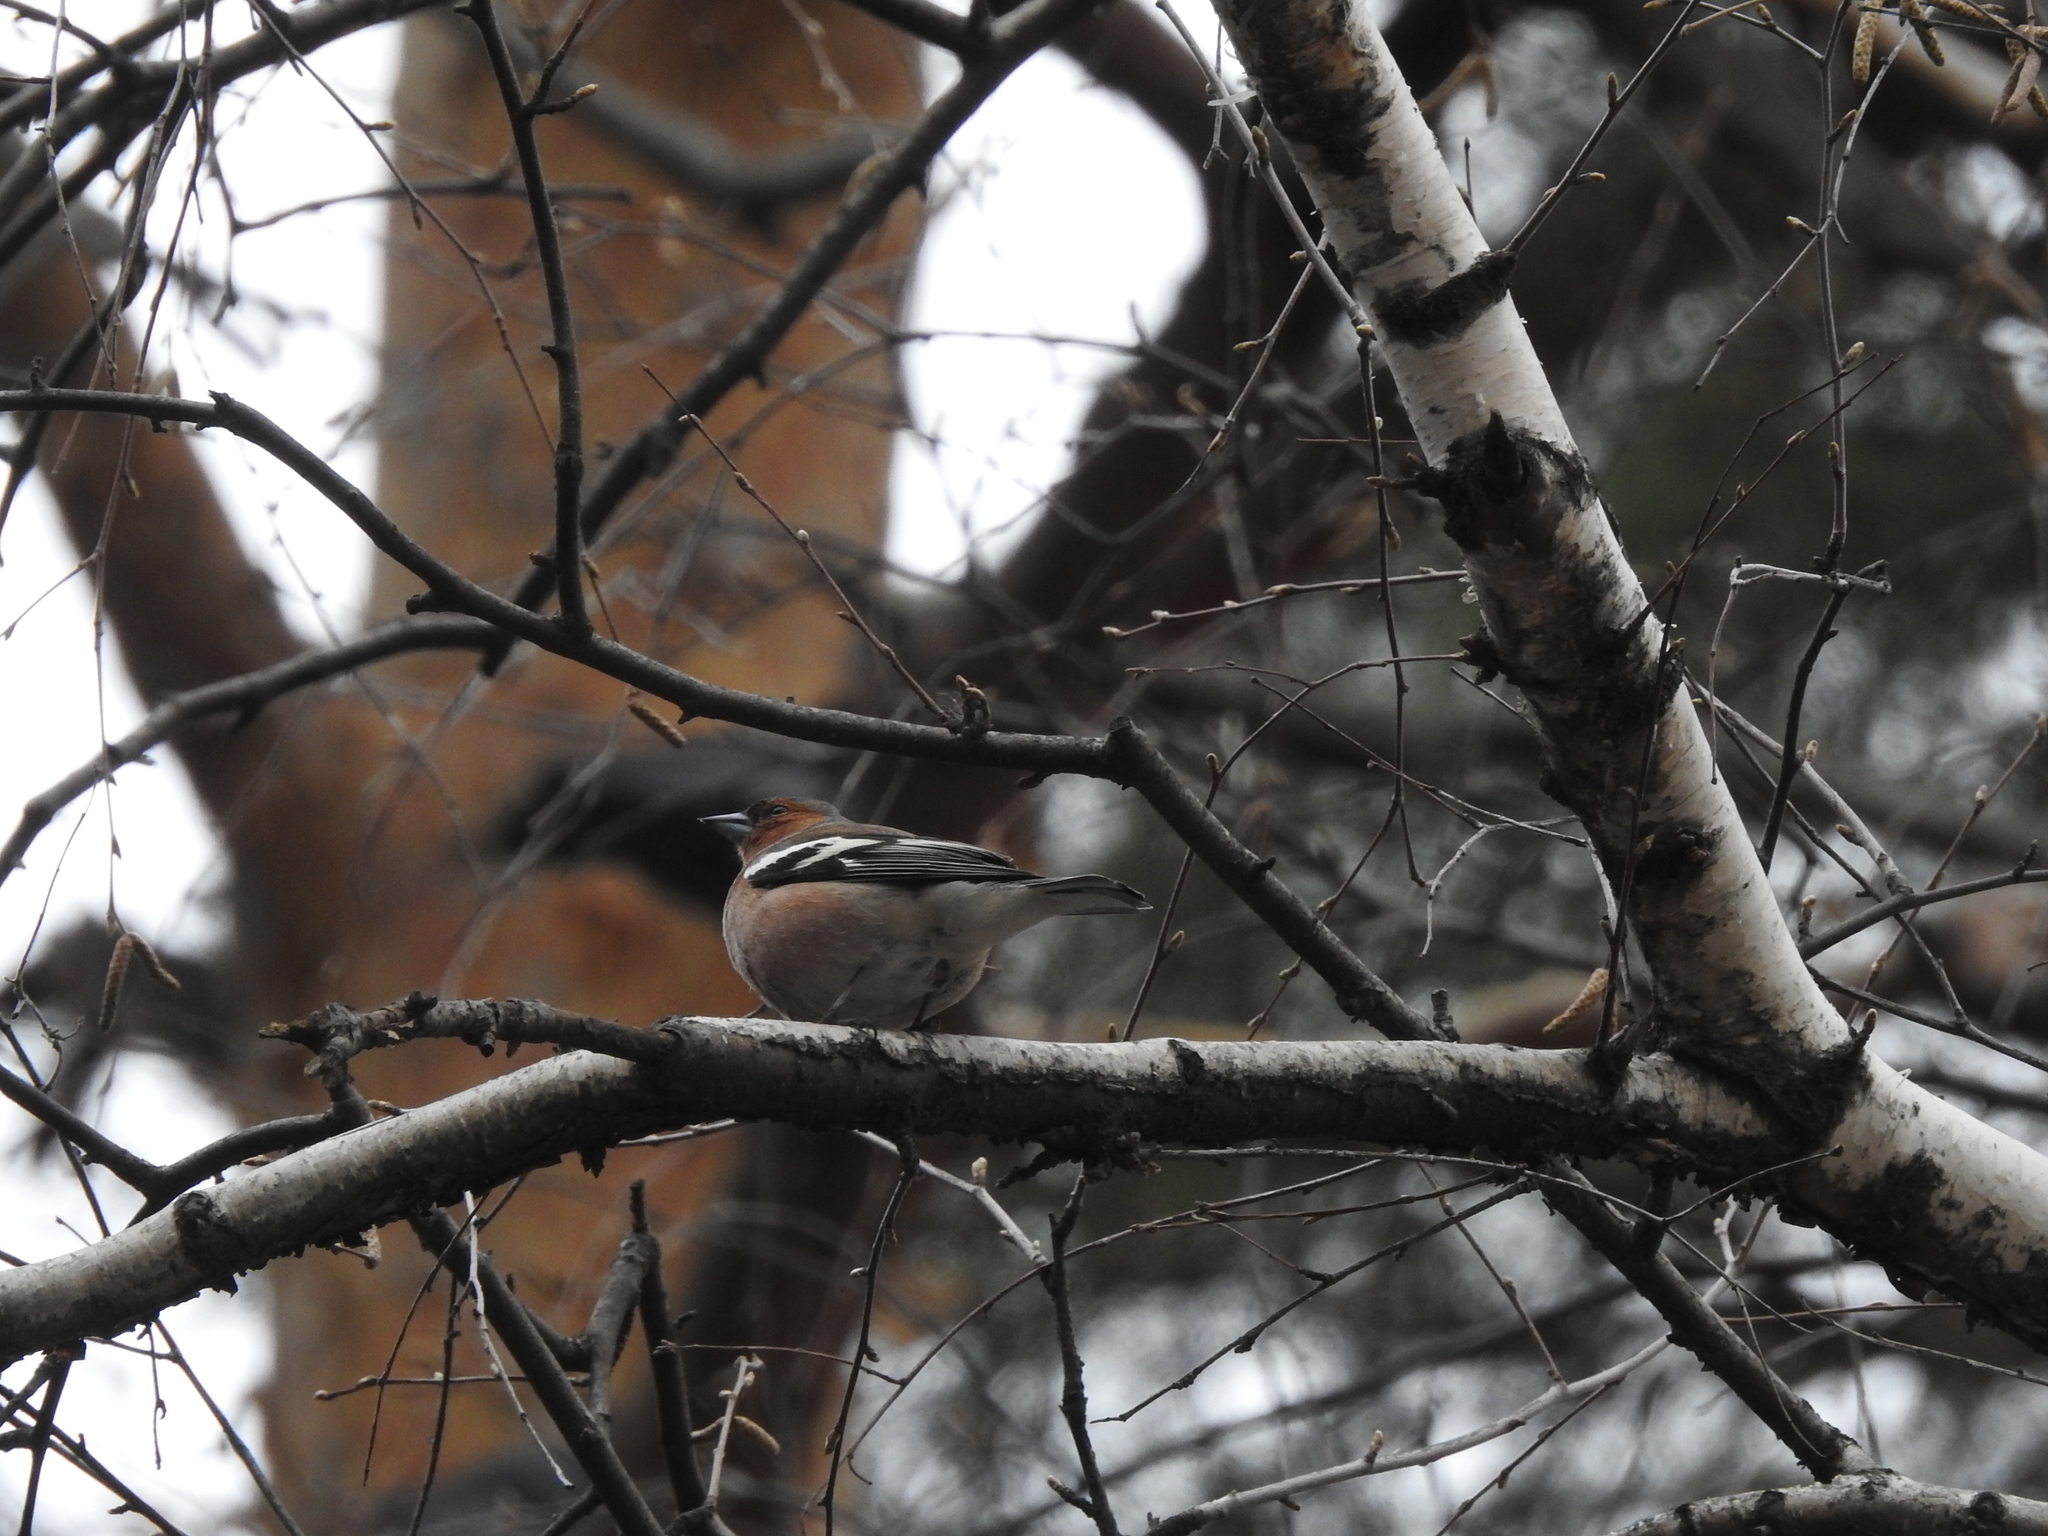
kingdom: Animalia
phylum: Chordata
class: Aves
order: Passeriformes
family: Fringillidae
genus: Fringilla
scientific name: Fringilla coelebs
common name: Common chaffinch
